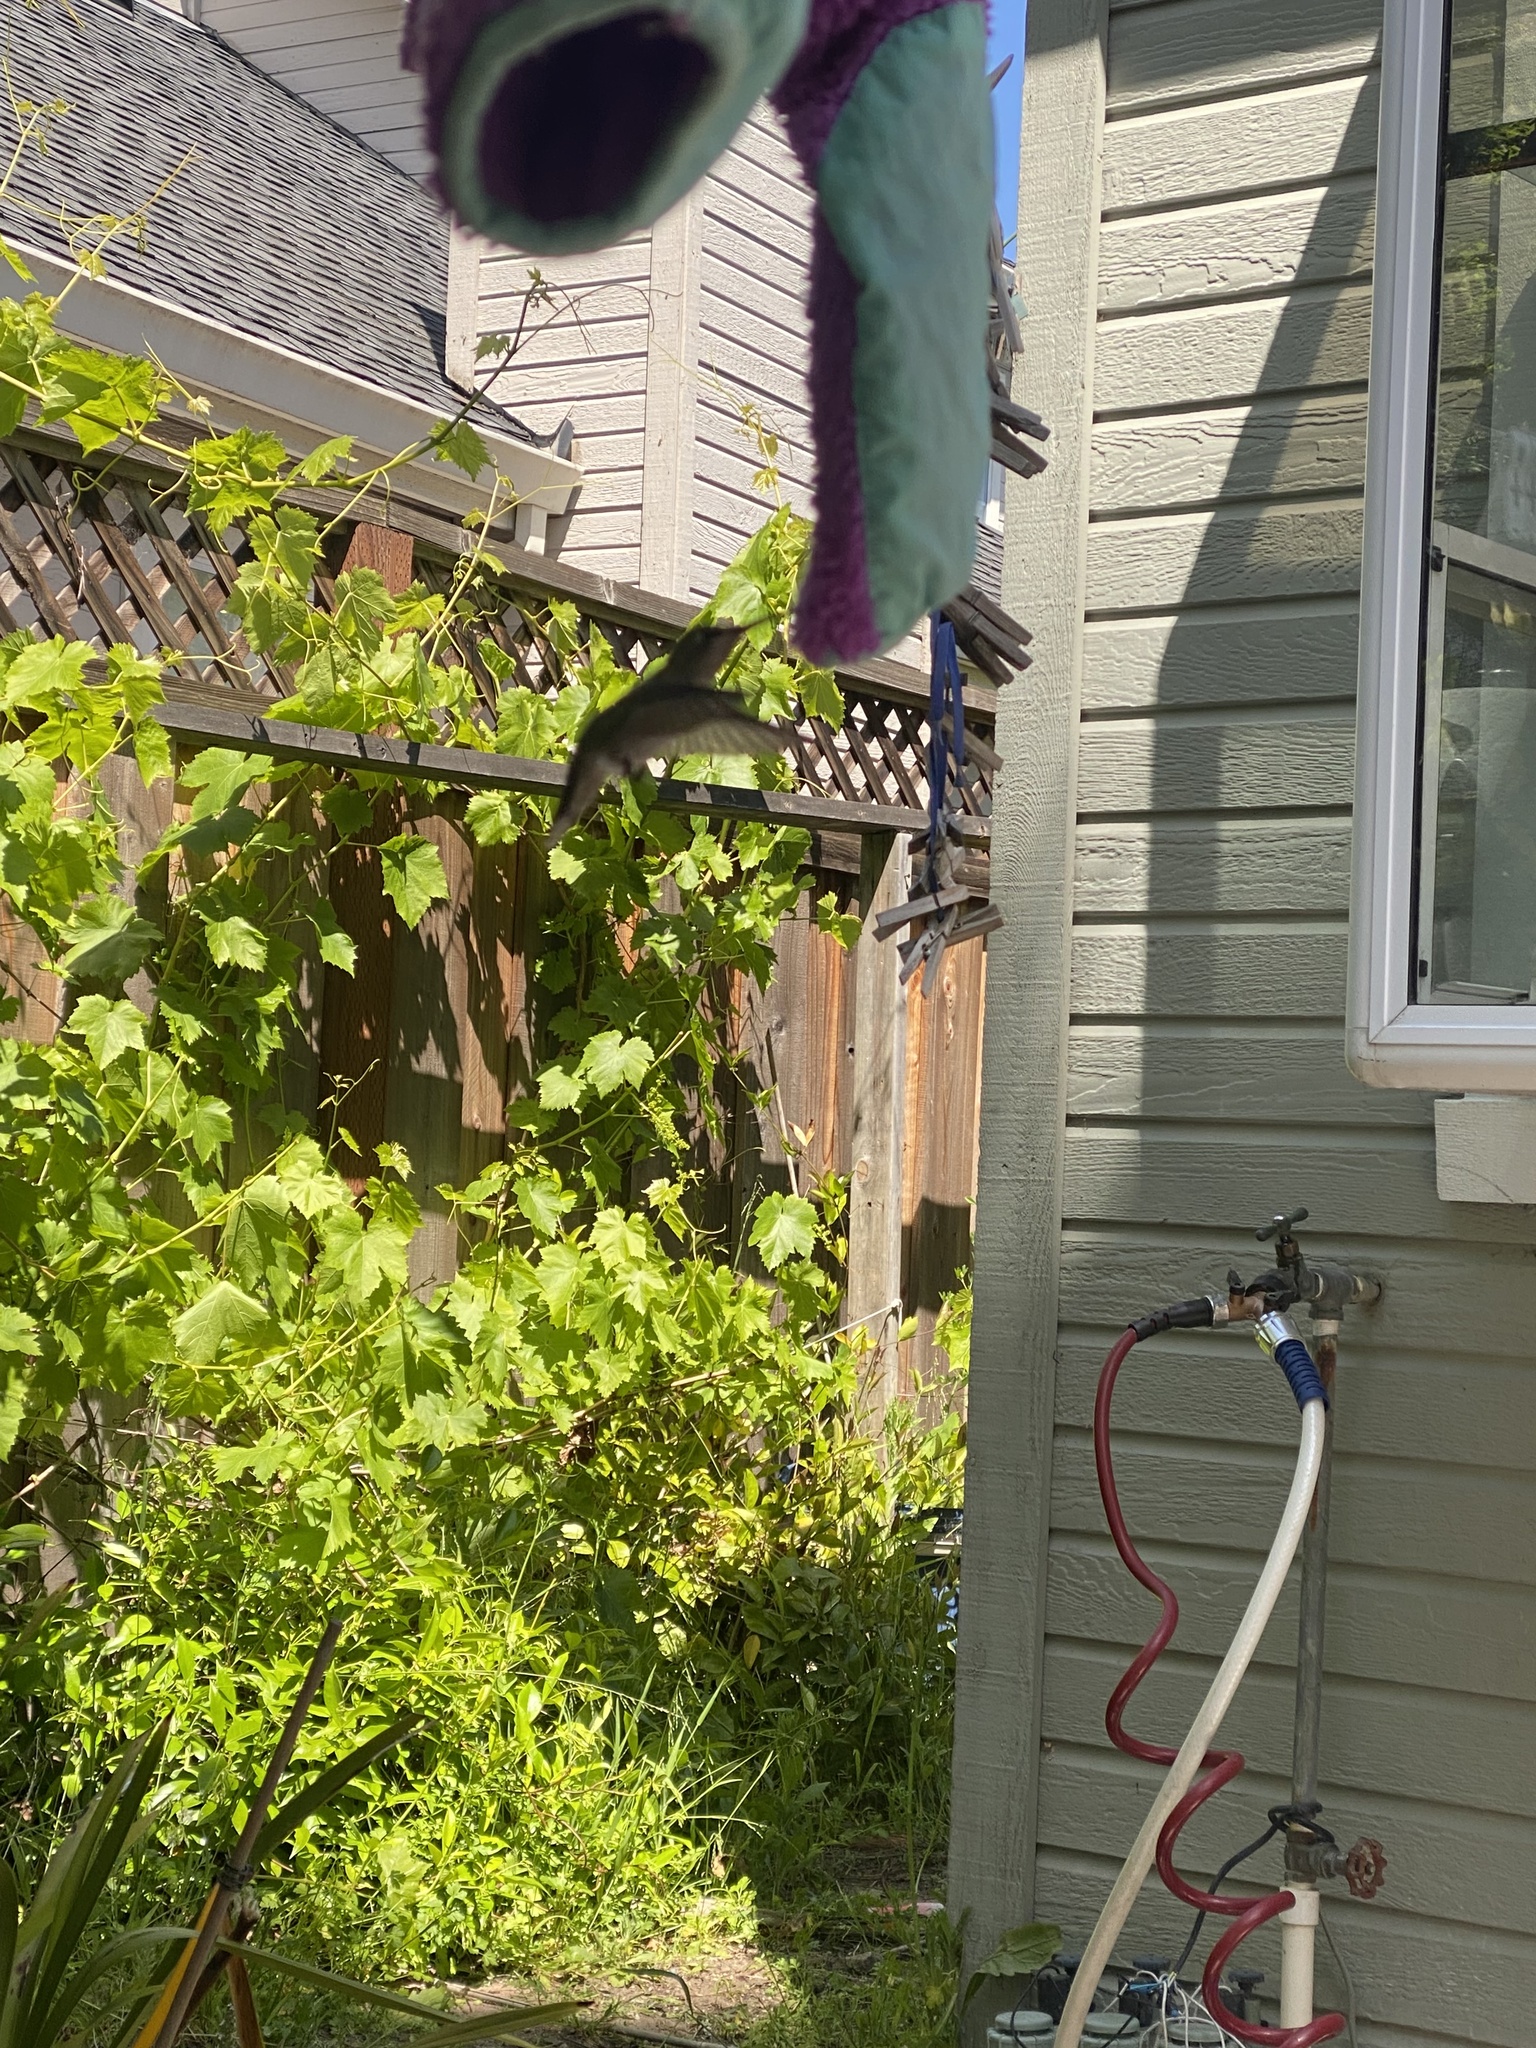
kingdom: Animalia
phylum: Chordata
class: Aves
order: Apodiformes
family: Trochilidae
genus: Calypte
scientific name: Calypte anna
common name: Anna's hummingbird
